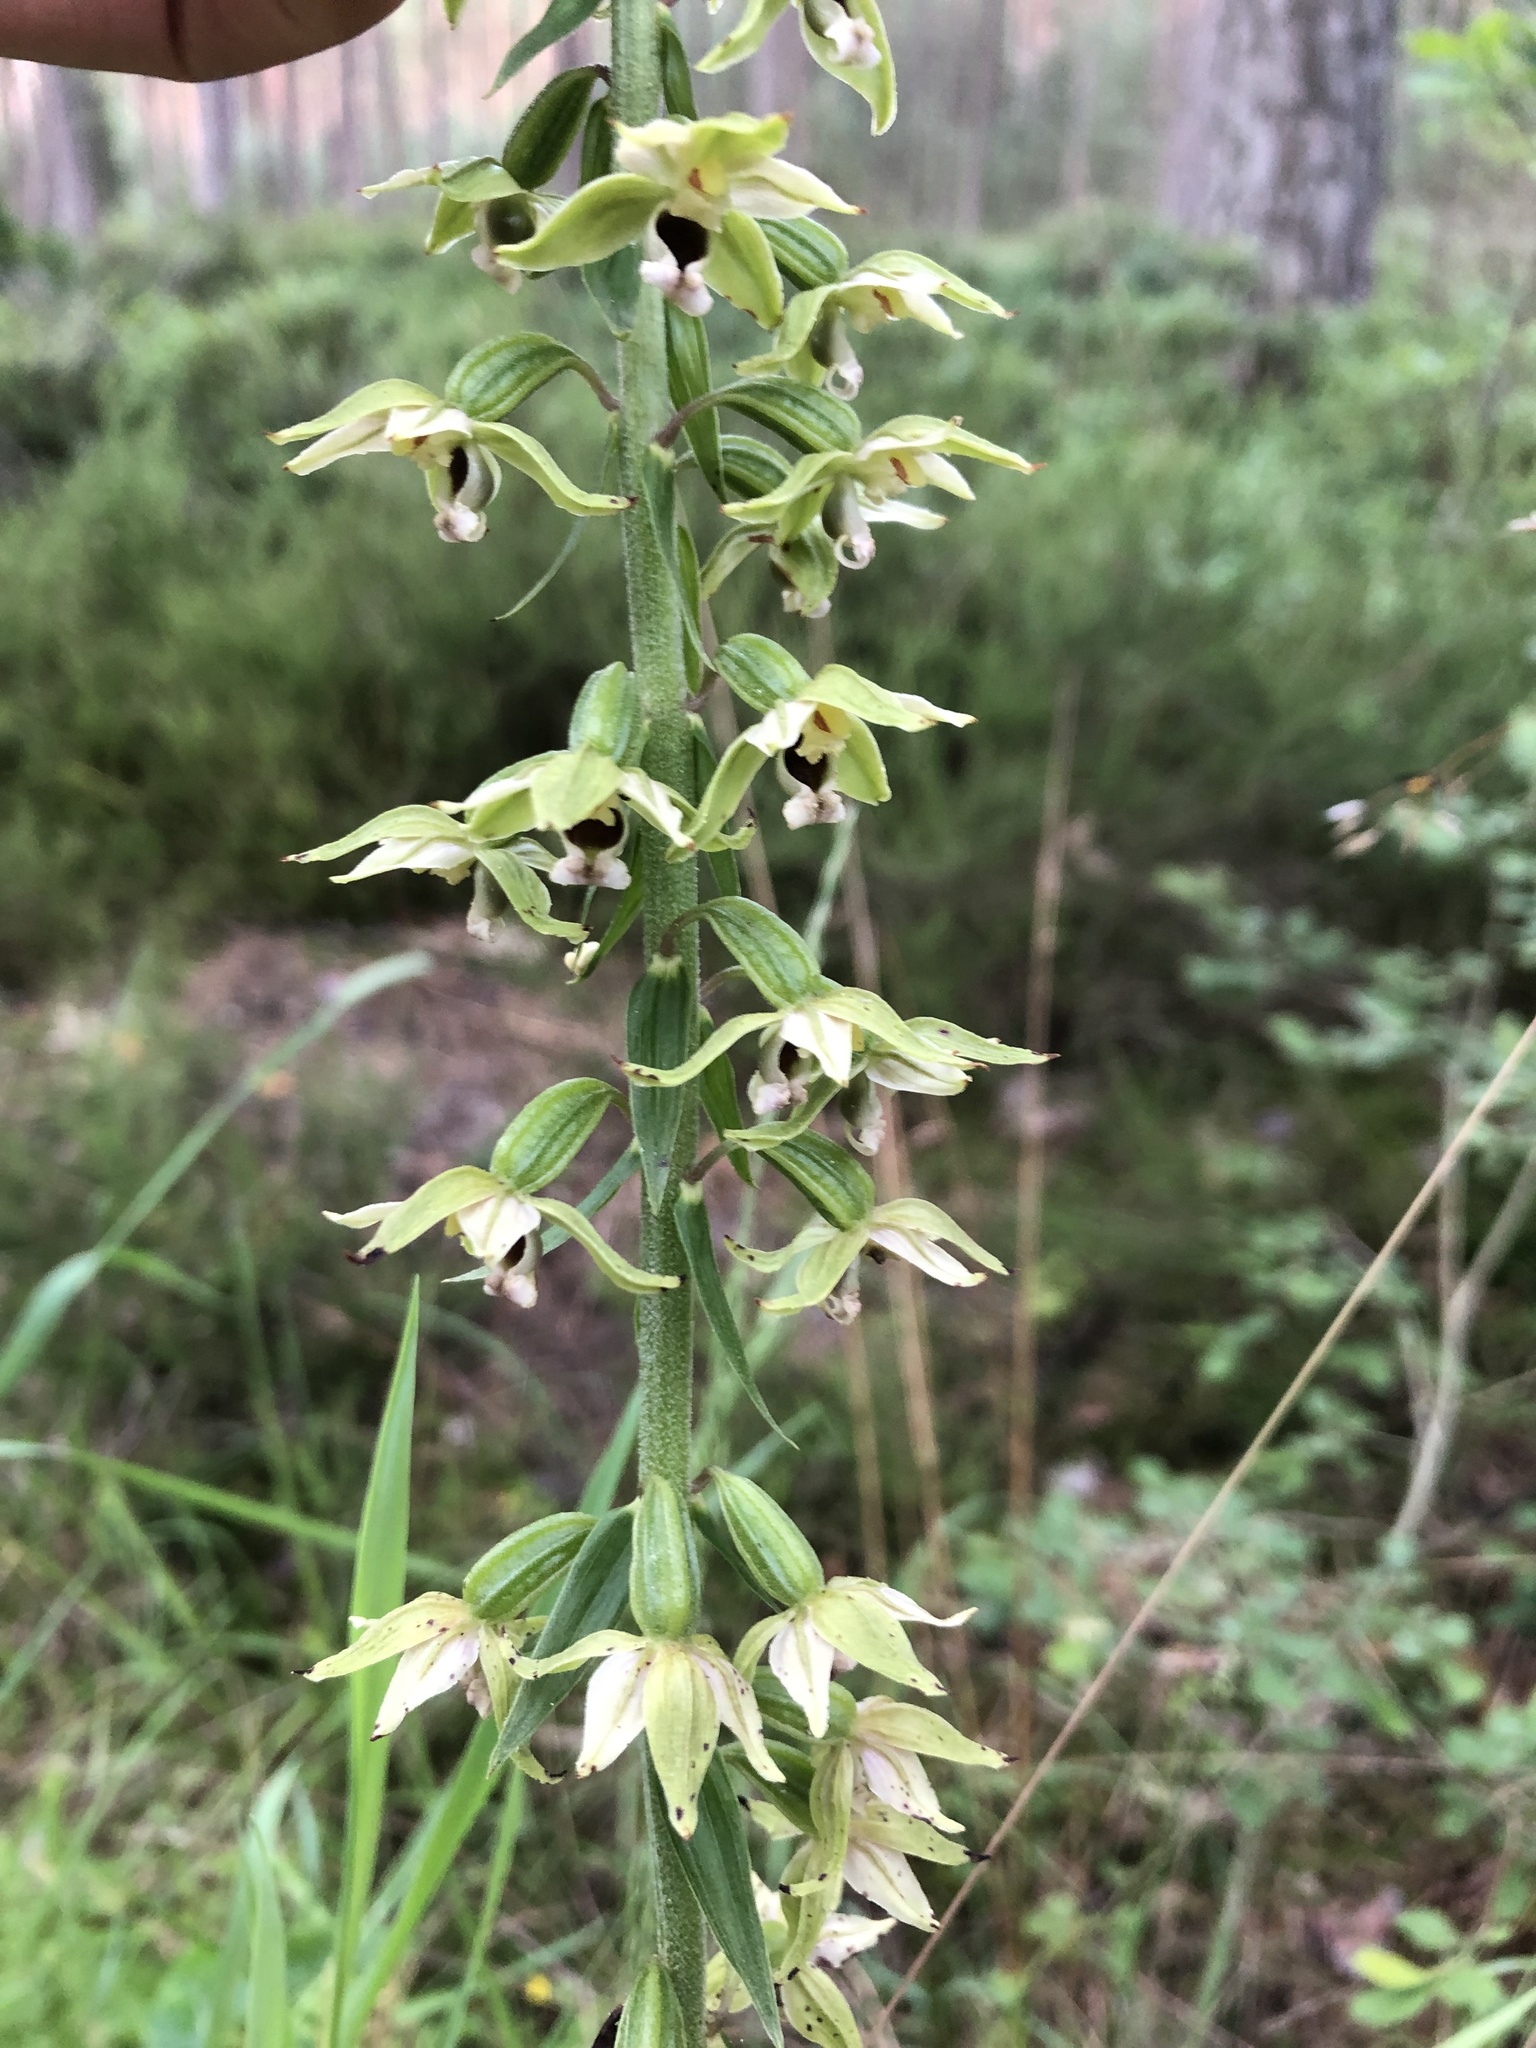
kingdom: Plantae
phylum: Tracheophyta
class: Liliopsida
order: Asparagales
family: Orchidaceae
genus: Epipactis
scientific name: Epipactis helleborine
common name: Broad-leaved helleborine
